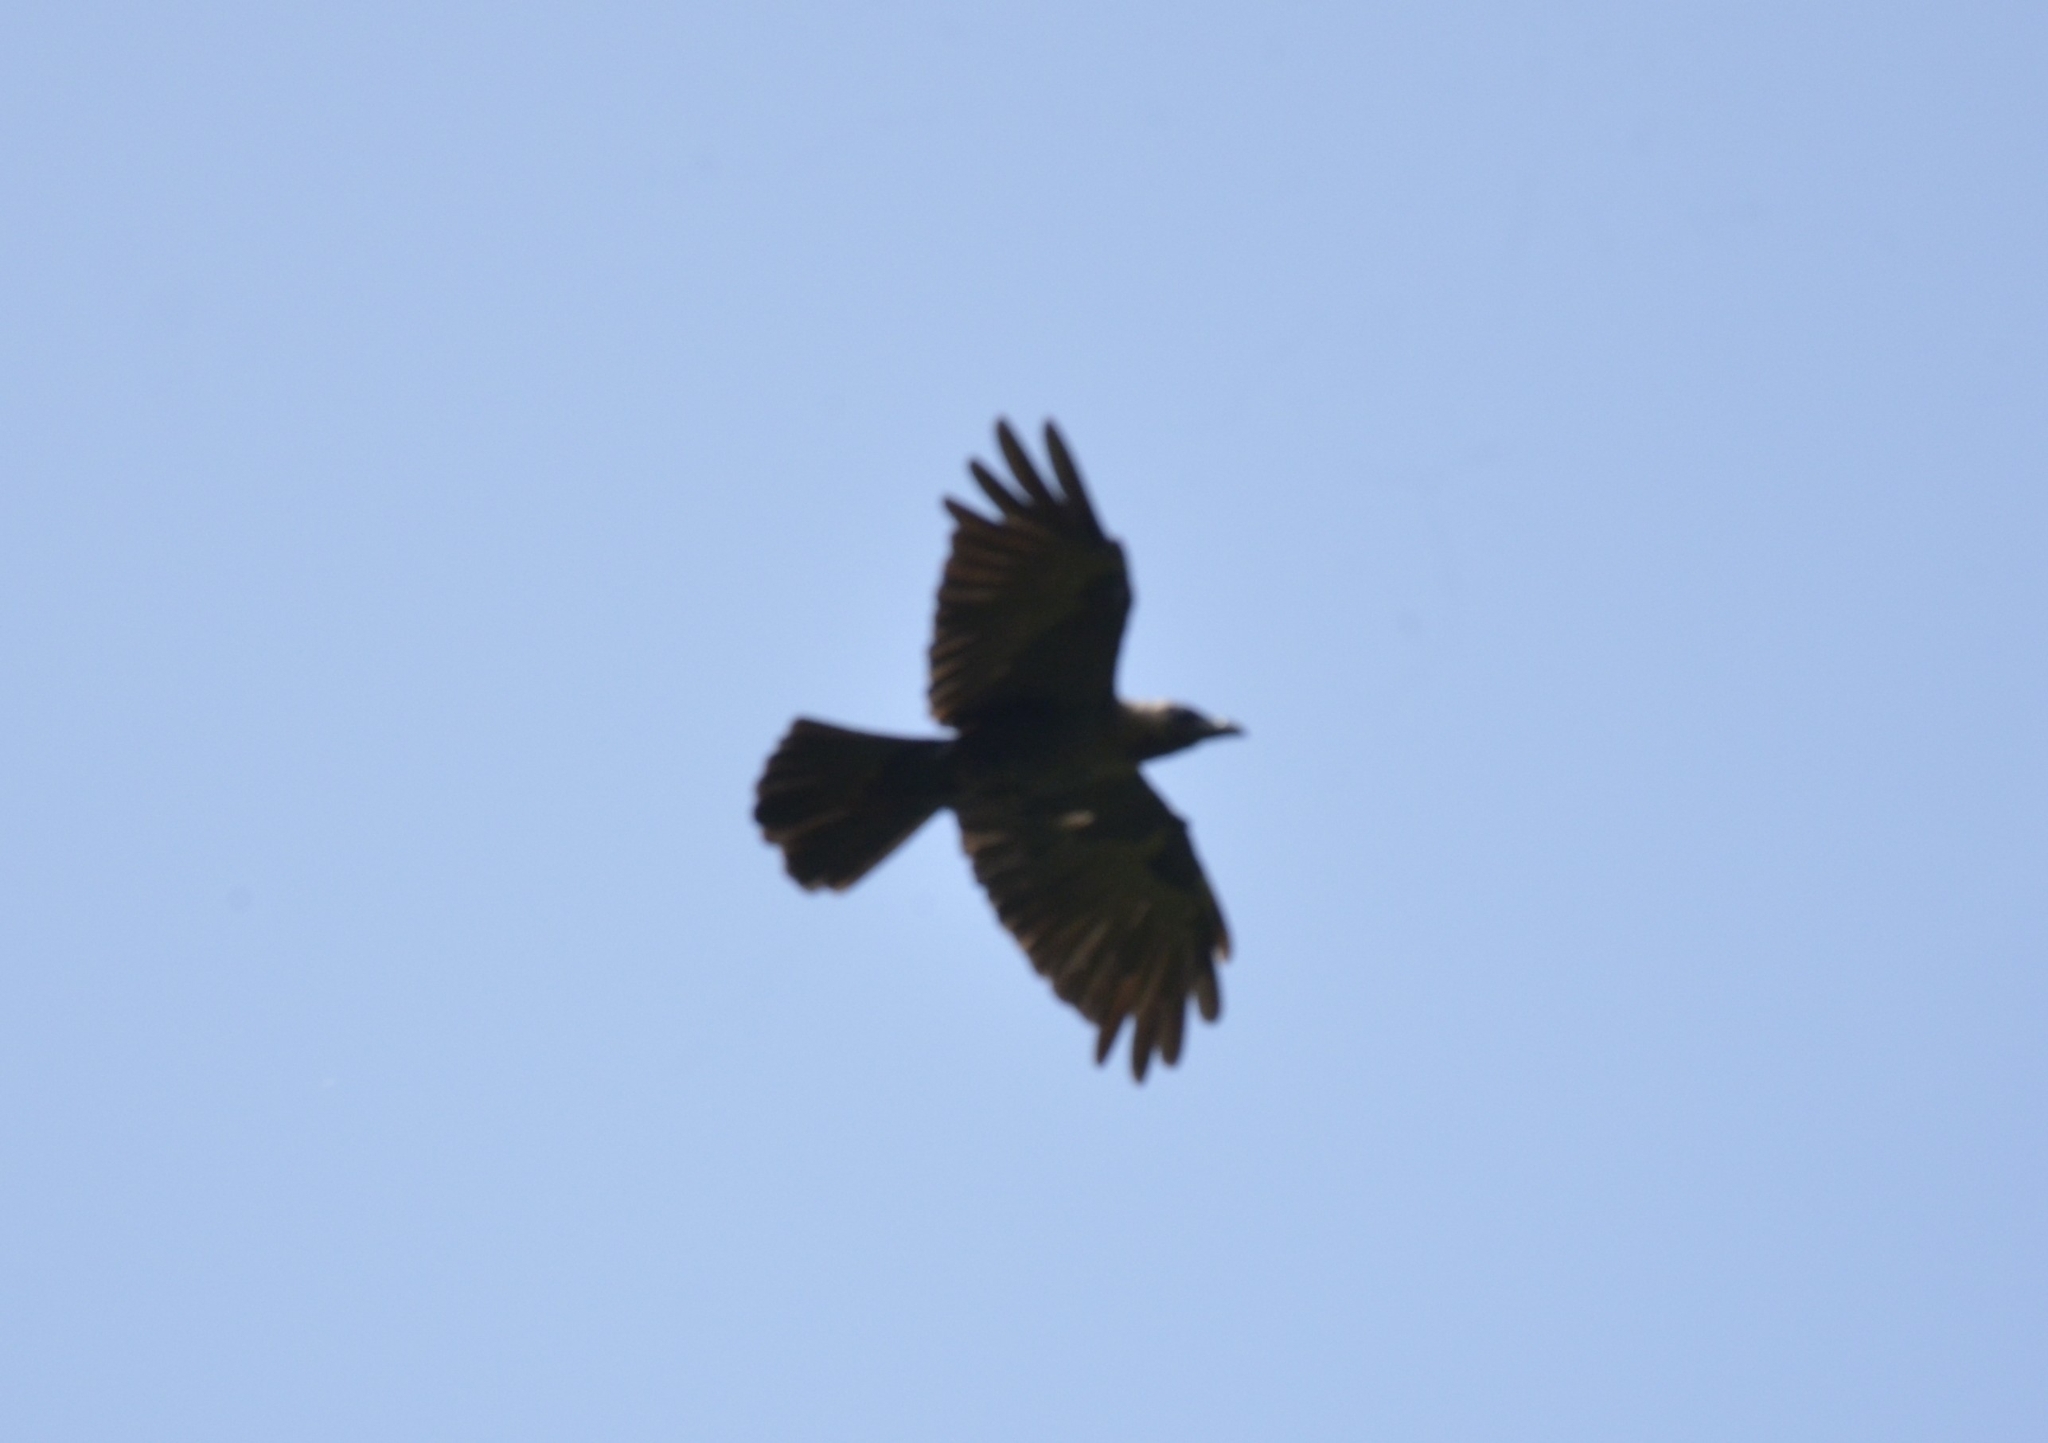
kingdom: Animalia
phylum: Chordata
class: Aves
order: Passeriformes
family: Corvidae
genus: Corvus
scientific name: Corvus splendens
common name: House crow
